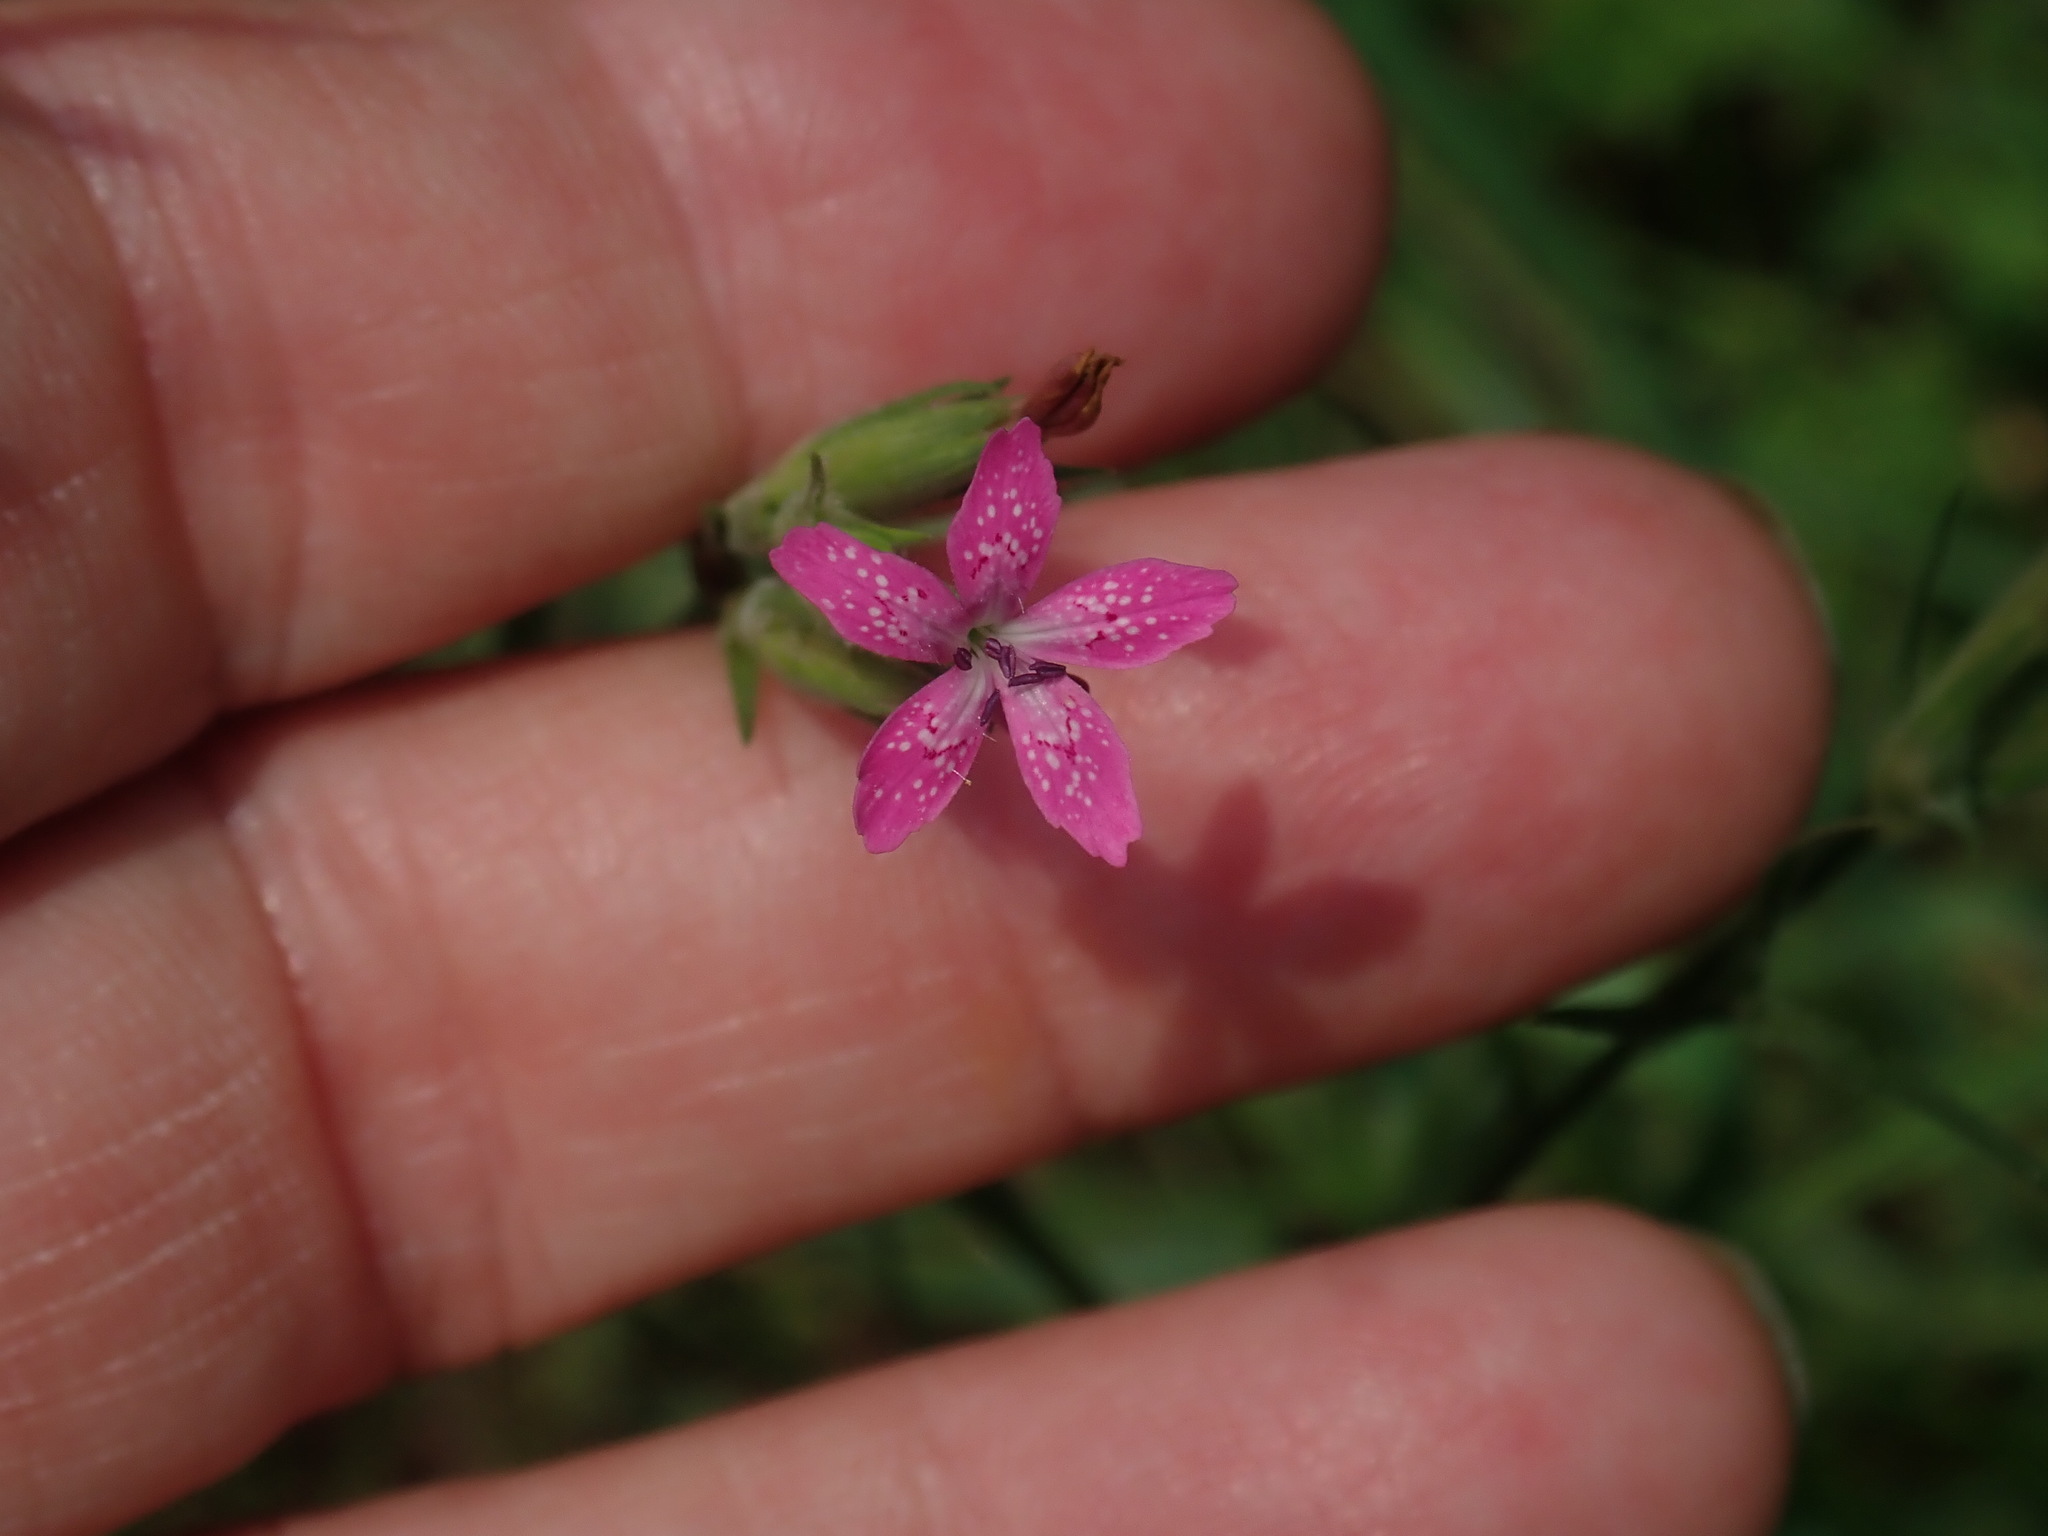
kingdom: Plantae
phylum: Tracheophyta
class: Magnoliopsida
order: Caryophyllales
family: Caryophyllaceae
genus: Dianthus
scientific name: Dianthus armeria
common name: Deptford pink
